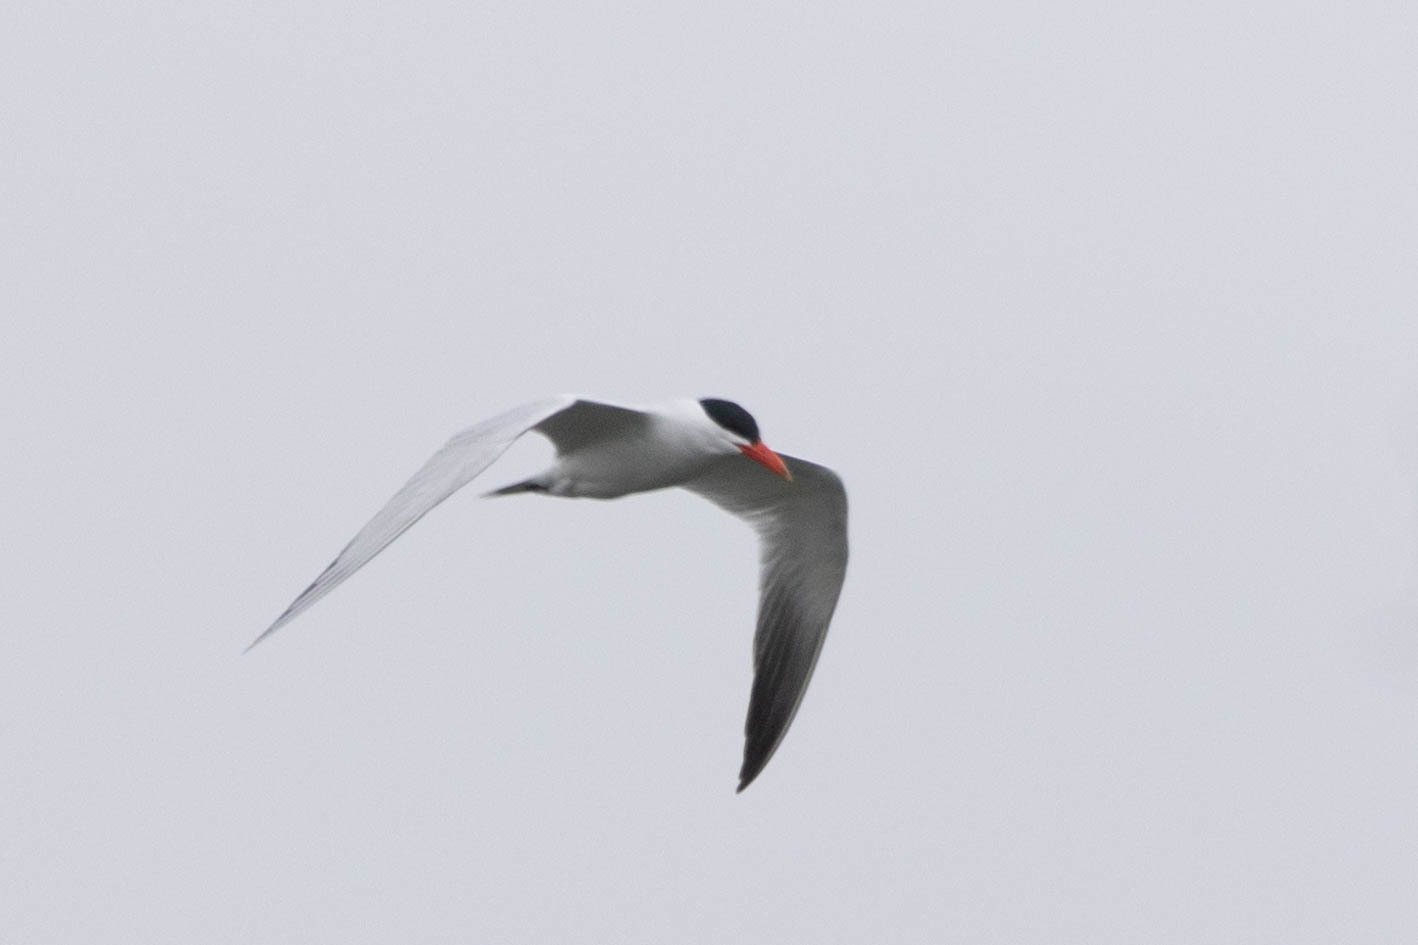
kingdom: Animalia
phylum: Chordata
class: Aves
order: Charadriiformes
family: Laridae
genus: Hydroprogne
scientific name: Hydroprogne caspia
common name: Caspian tern
